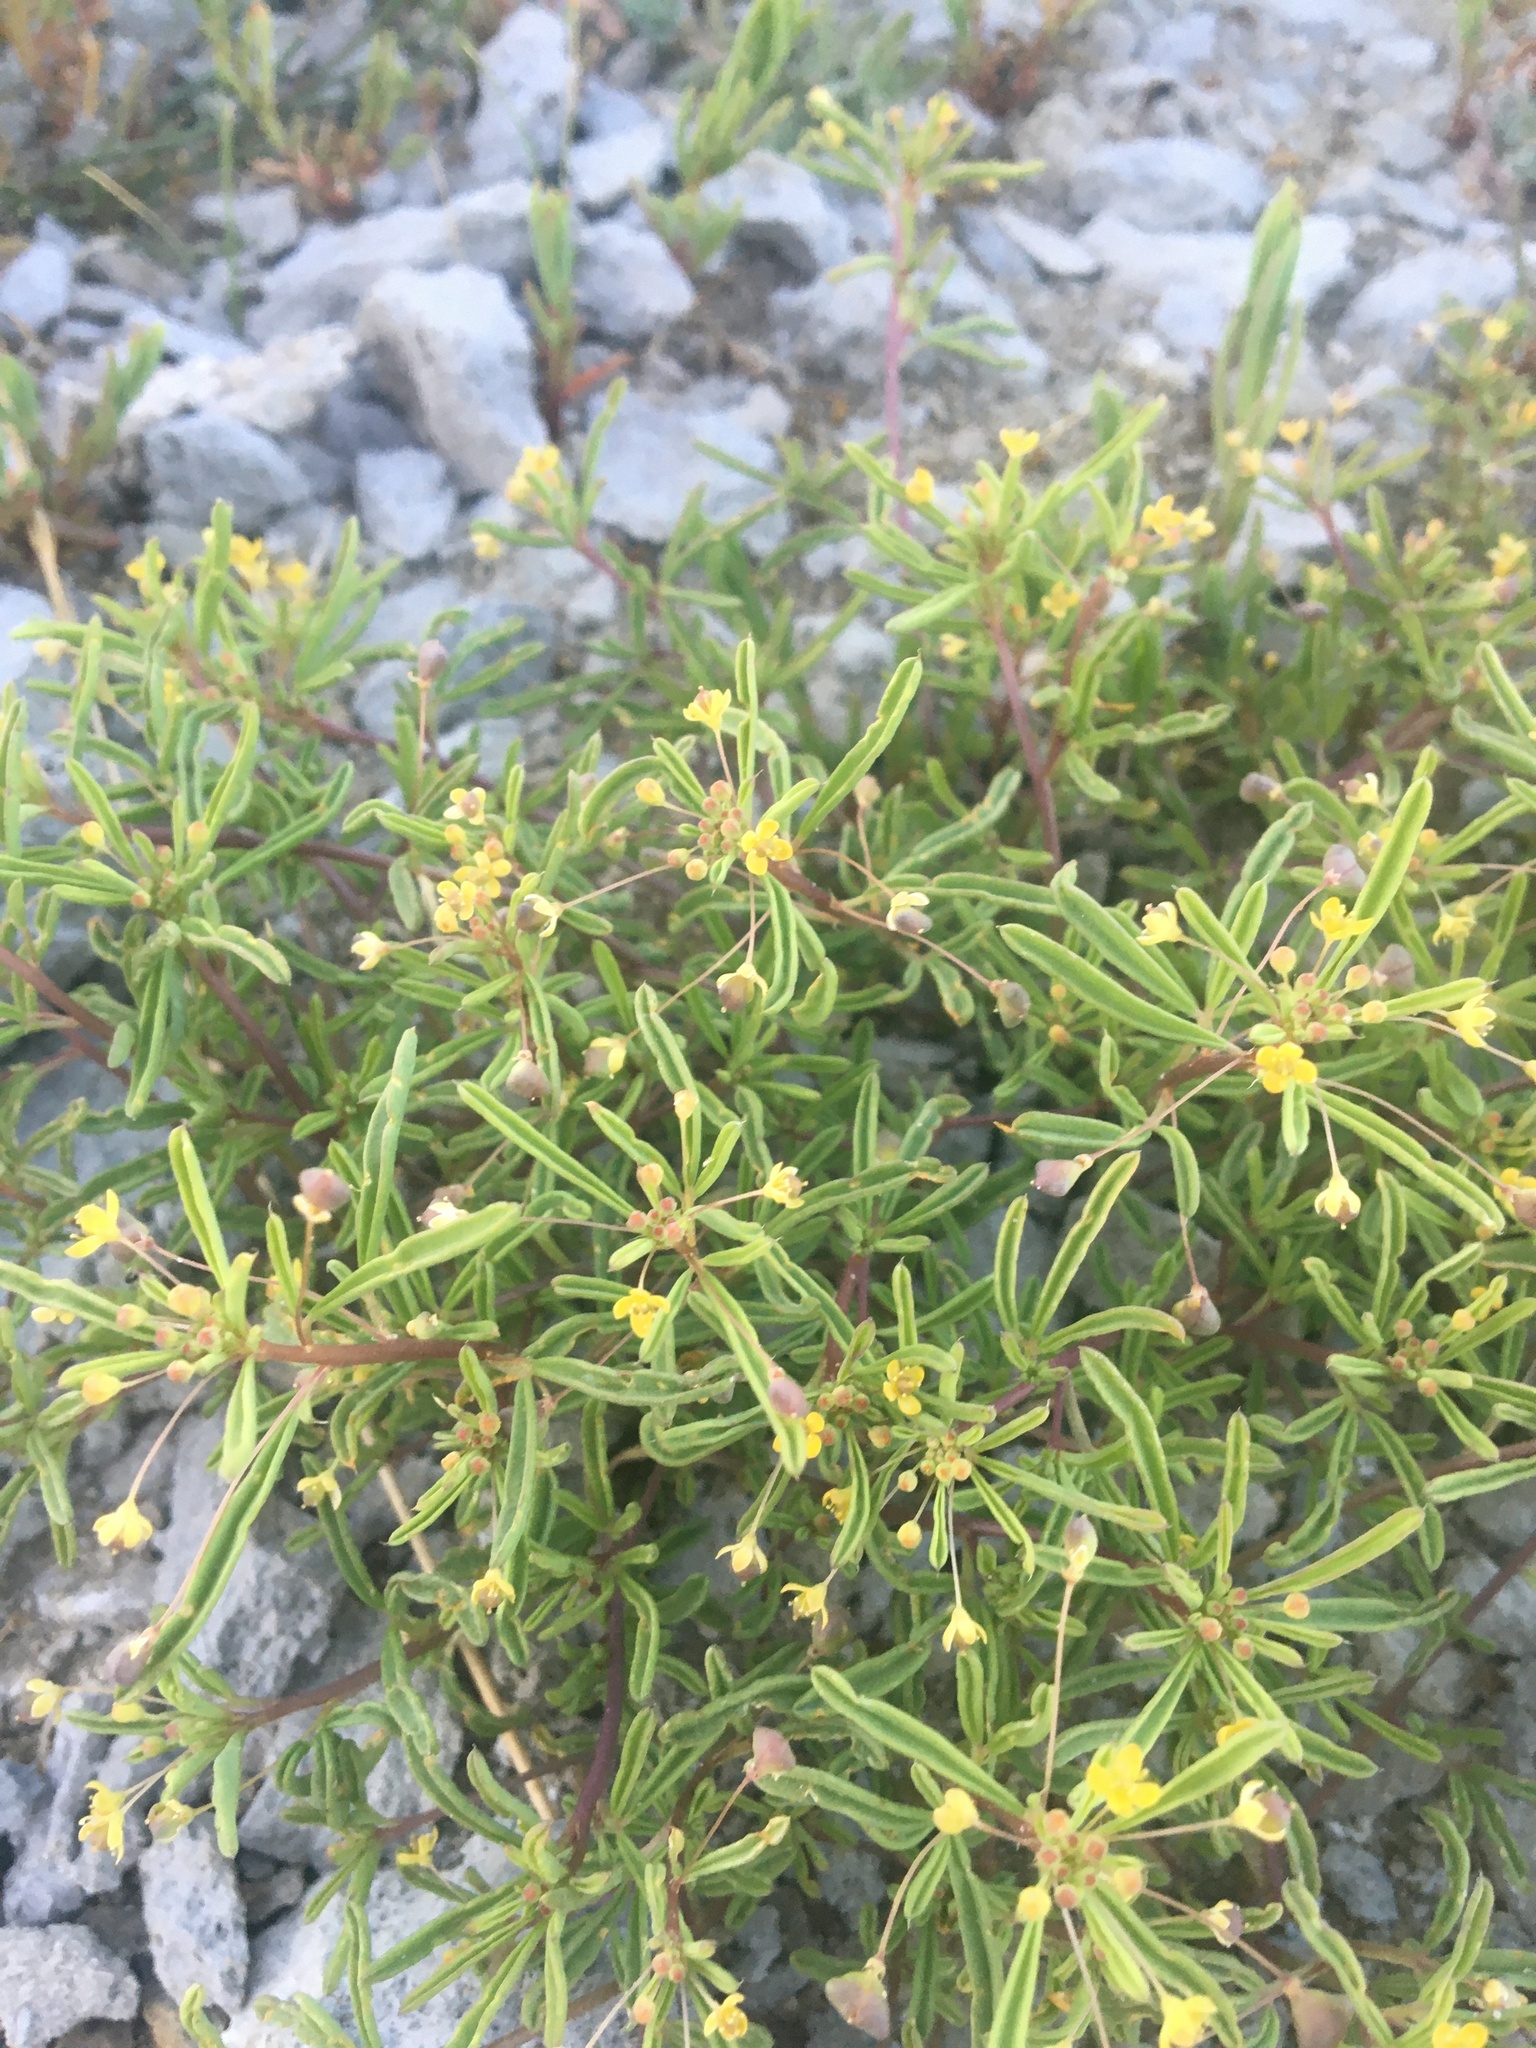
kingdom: Plantae
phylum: Tracheophyta
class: Magnoliopsida
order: Brassicales
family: Cleomaceae
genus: Cleomella
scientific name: Cleomella parviflora
